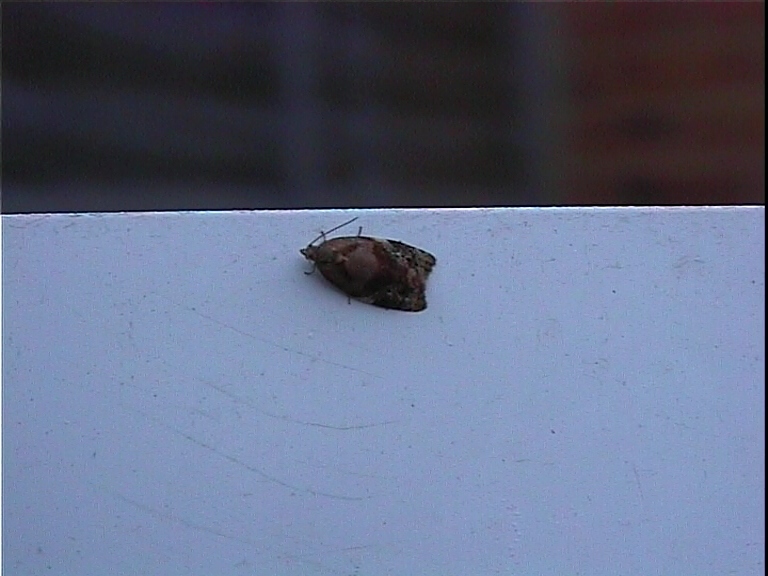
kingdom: Animalia
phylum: Arthropoda
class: Insecta
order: Lepidoptera
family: Tortricidae
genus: Ditula
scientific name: Ditula angustiorana
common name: Red-barred tortrix
